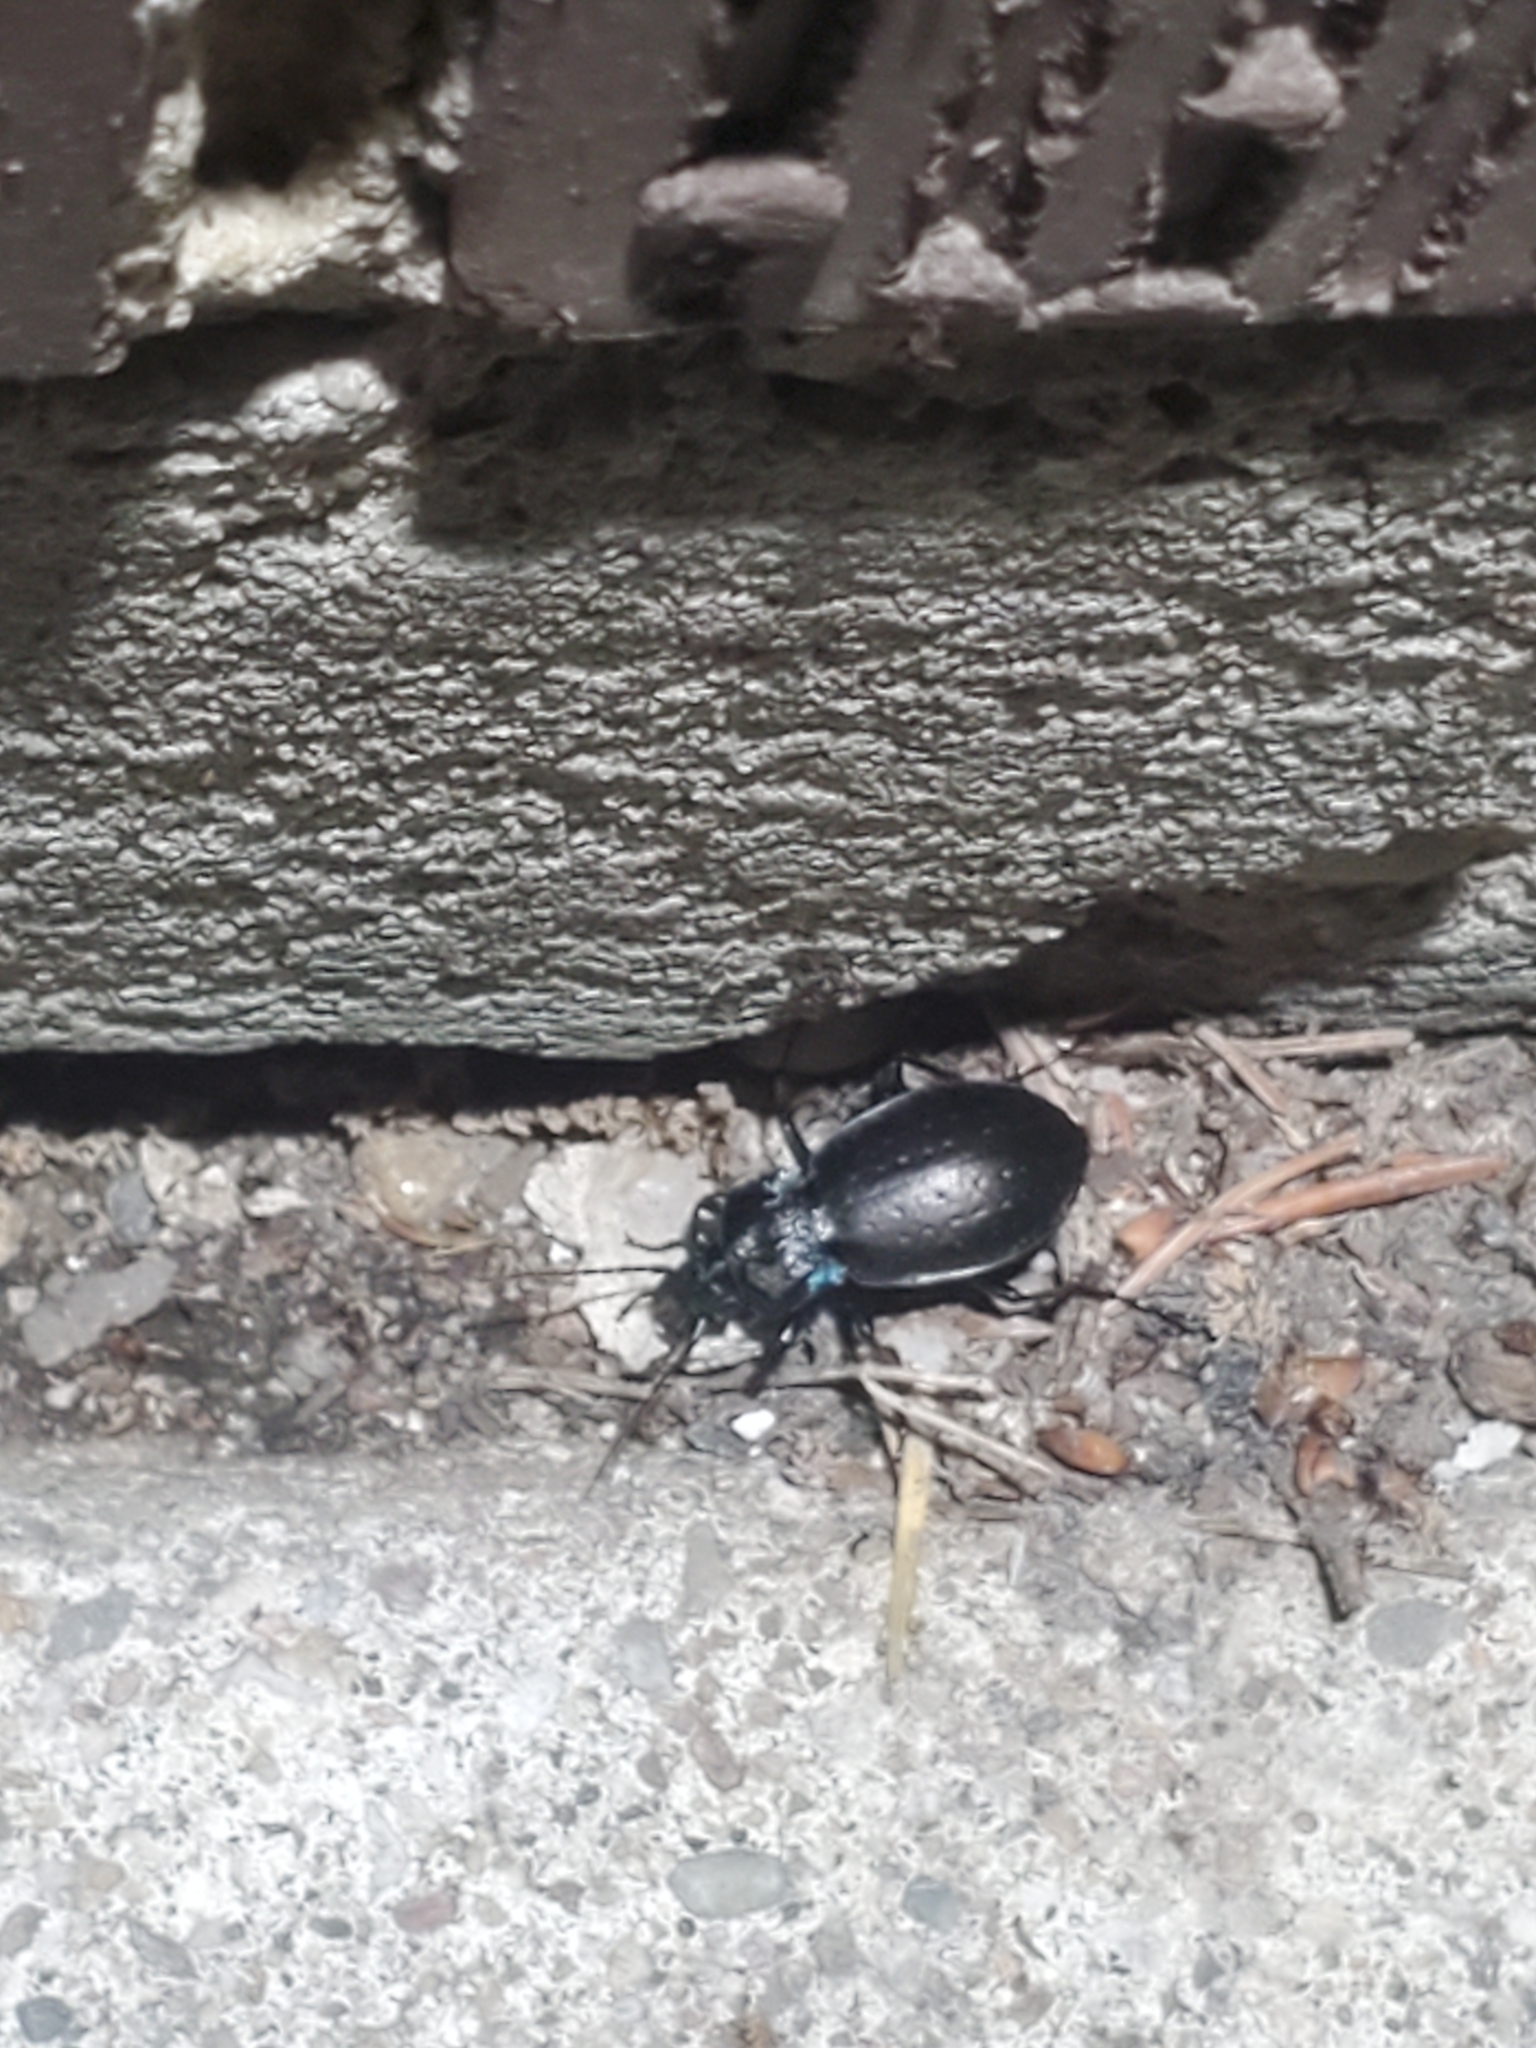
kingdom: Animalia
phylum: Arthropoda
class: Insecta
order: Coleoptera
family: Carabidae
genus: Carabus
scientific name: Carabus nemoralis
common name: European ground beetle
